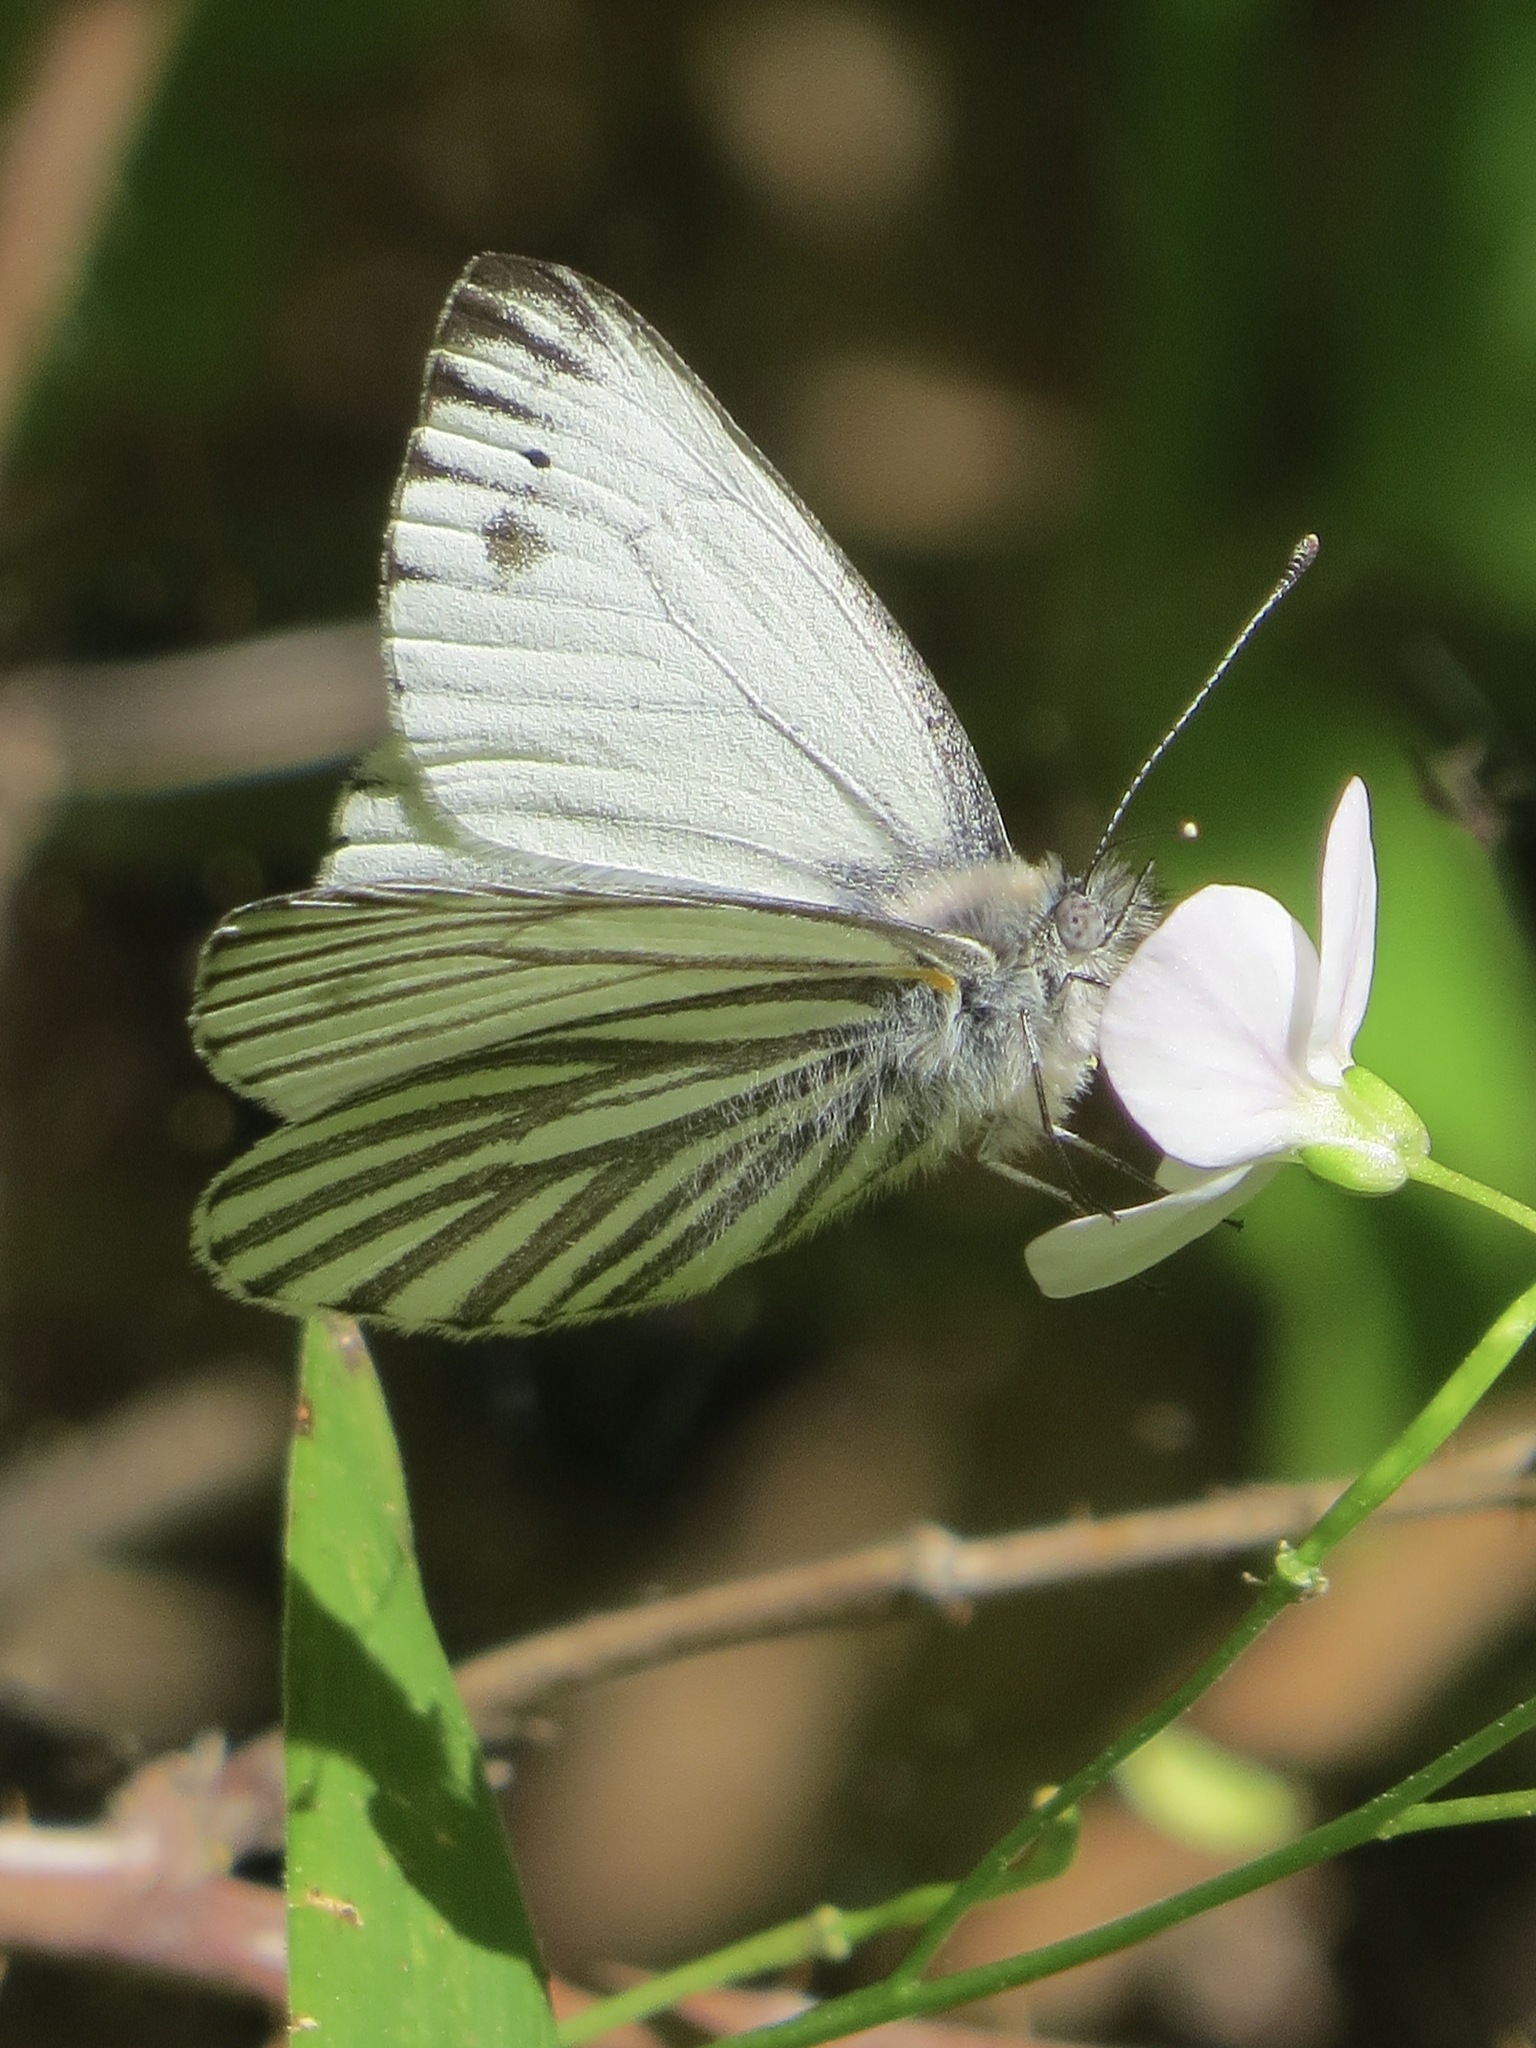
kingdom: Animalia
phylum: Arthropoda
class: Insecta
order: Lepidoptera
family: Pieridae
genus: Pieris
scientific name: Pieris marginalis
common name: Margined white
